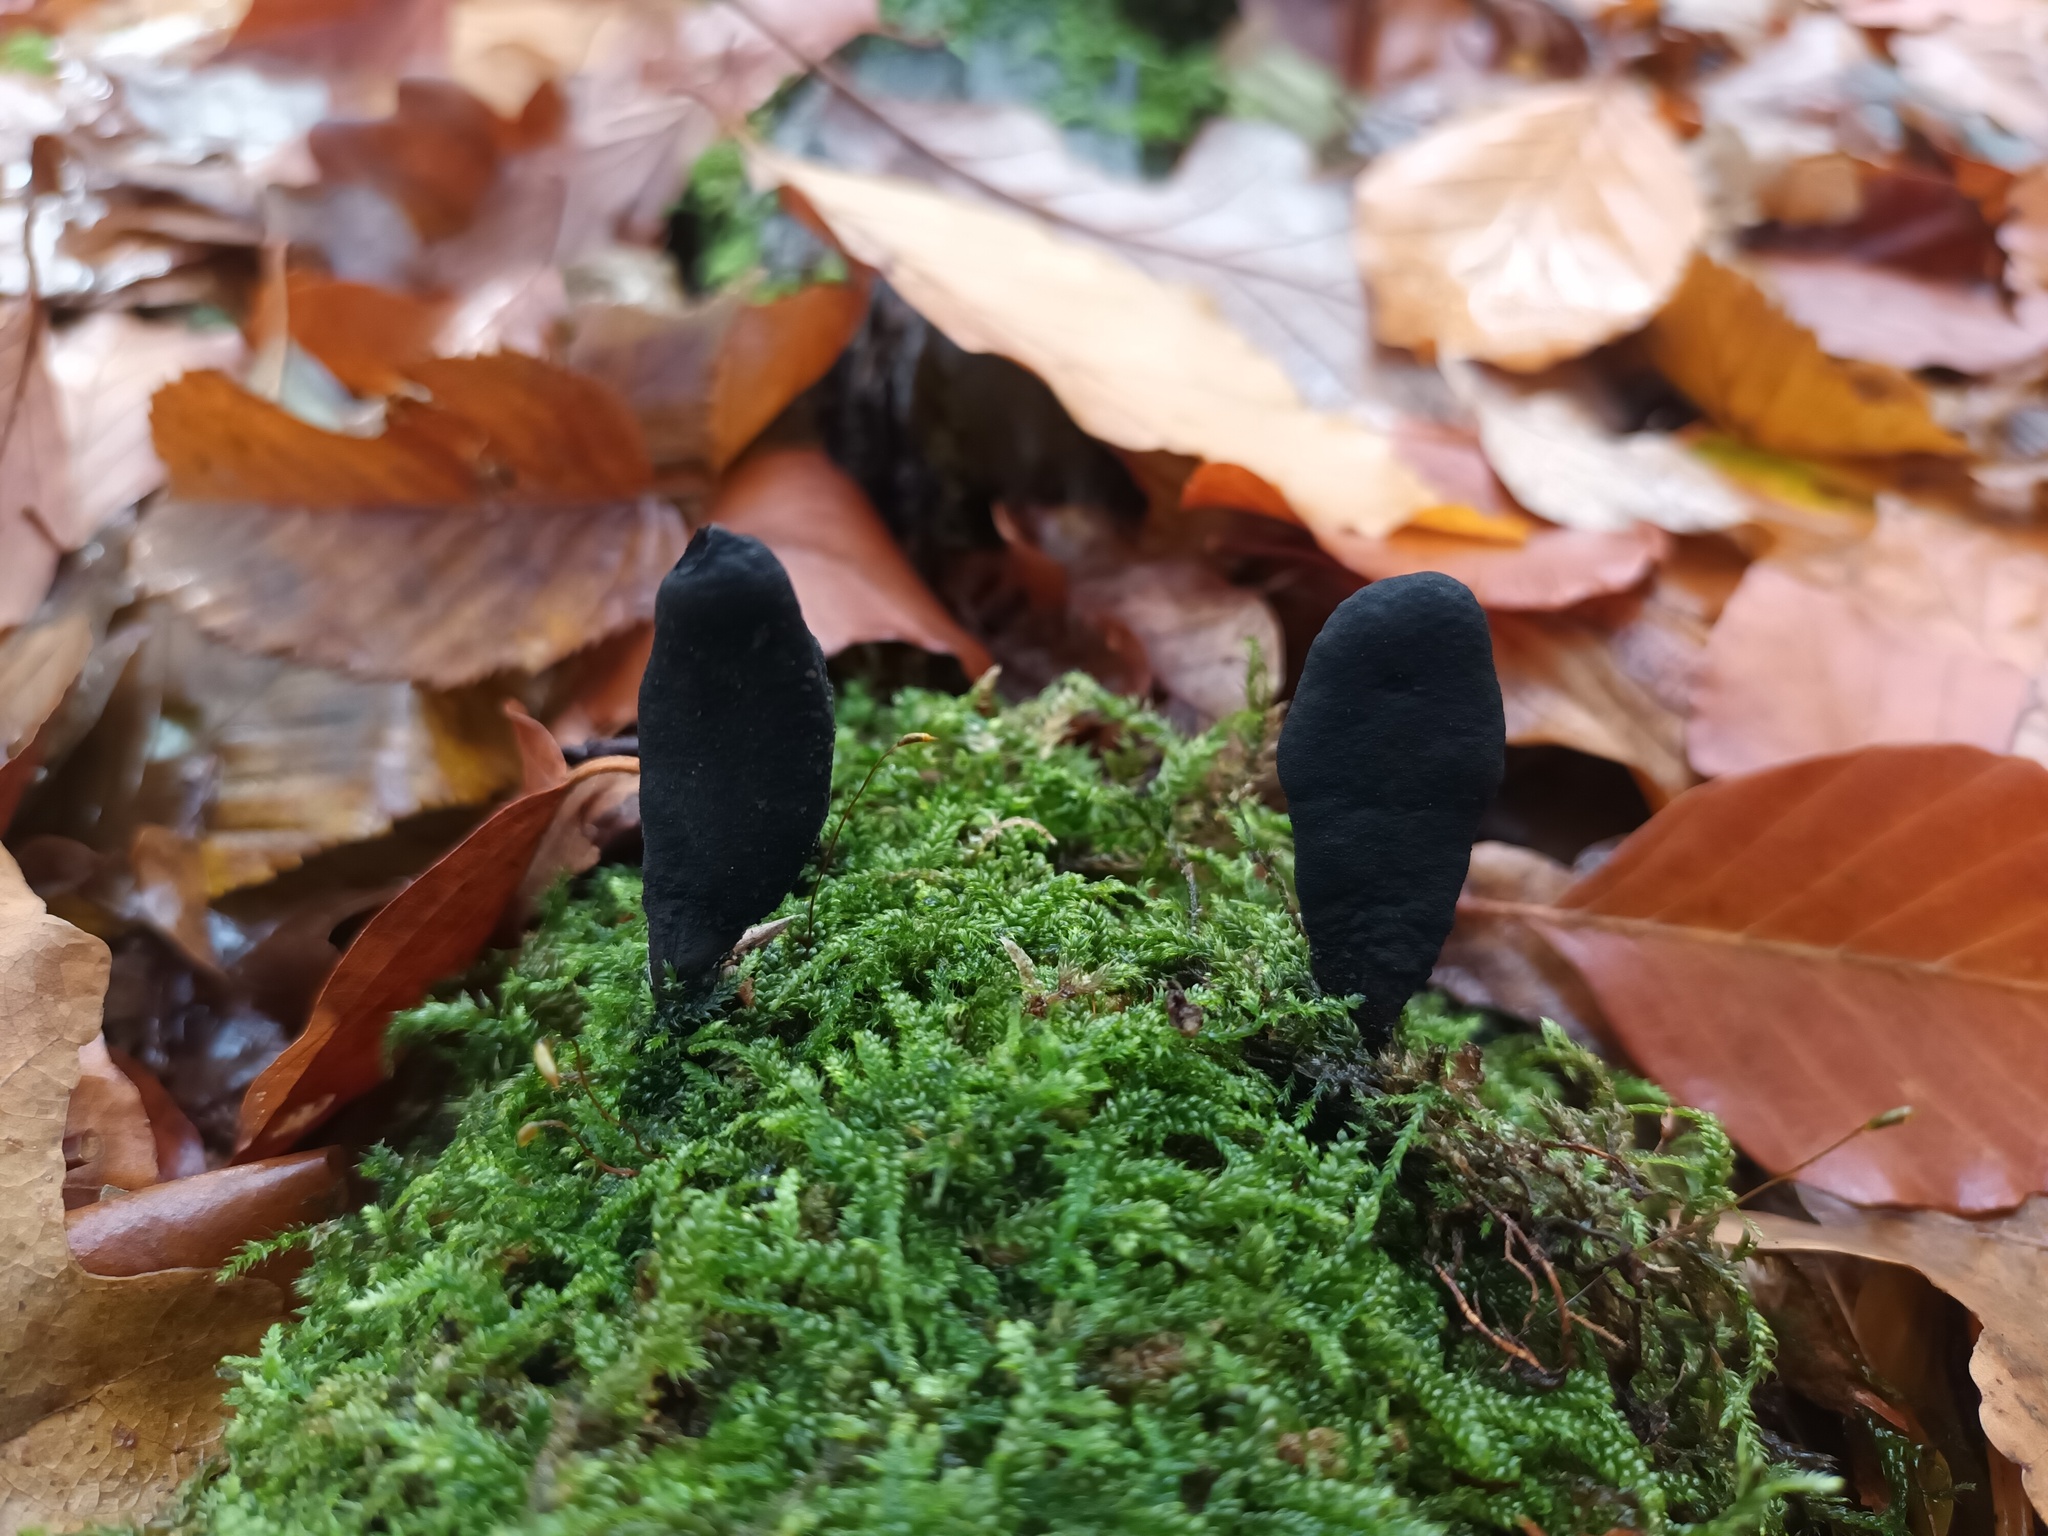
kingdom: Fungi
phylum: Ascomycota
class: Sordariomycetes
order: Xylariales
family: Xylariaceae
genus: Xylaria
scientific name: Xylaria longipes
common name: Dead moll's fingers
